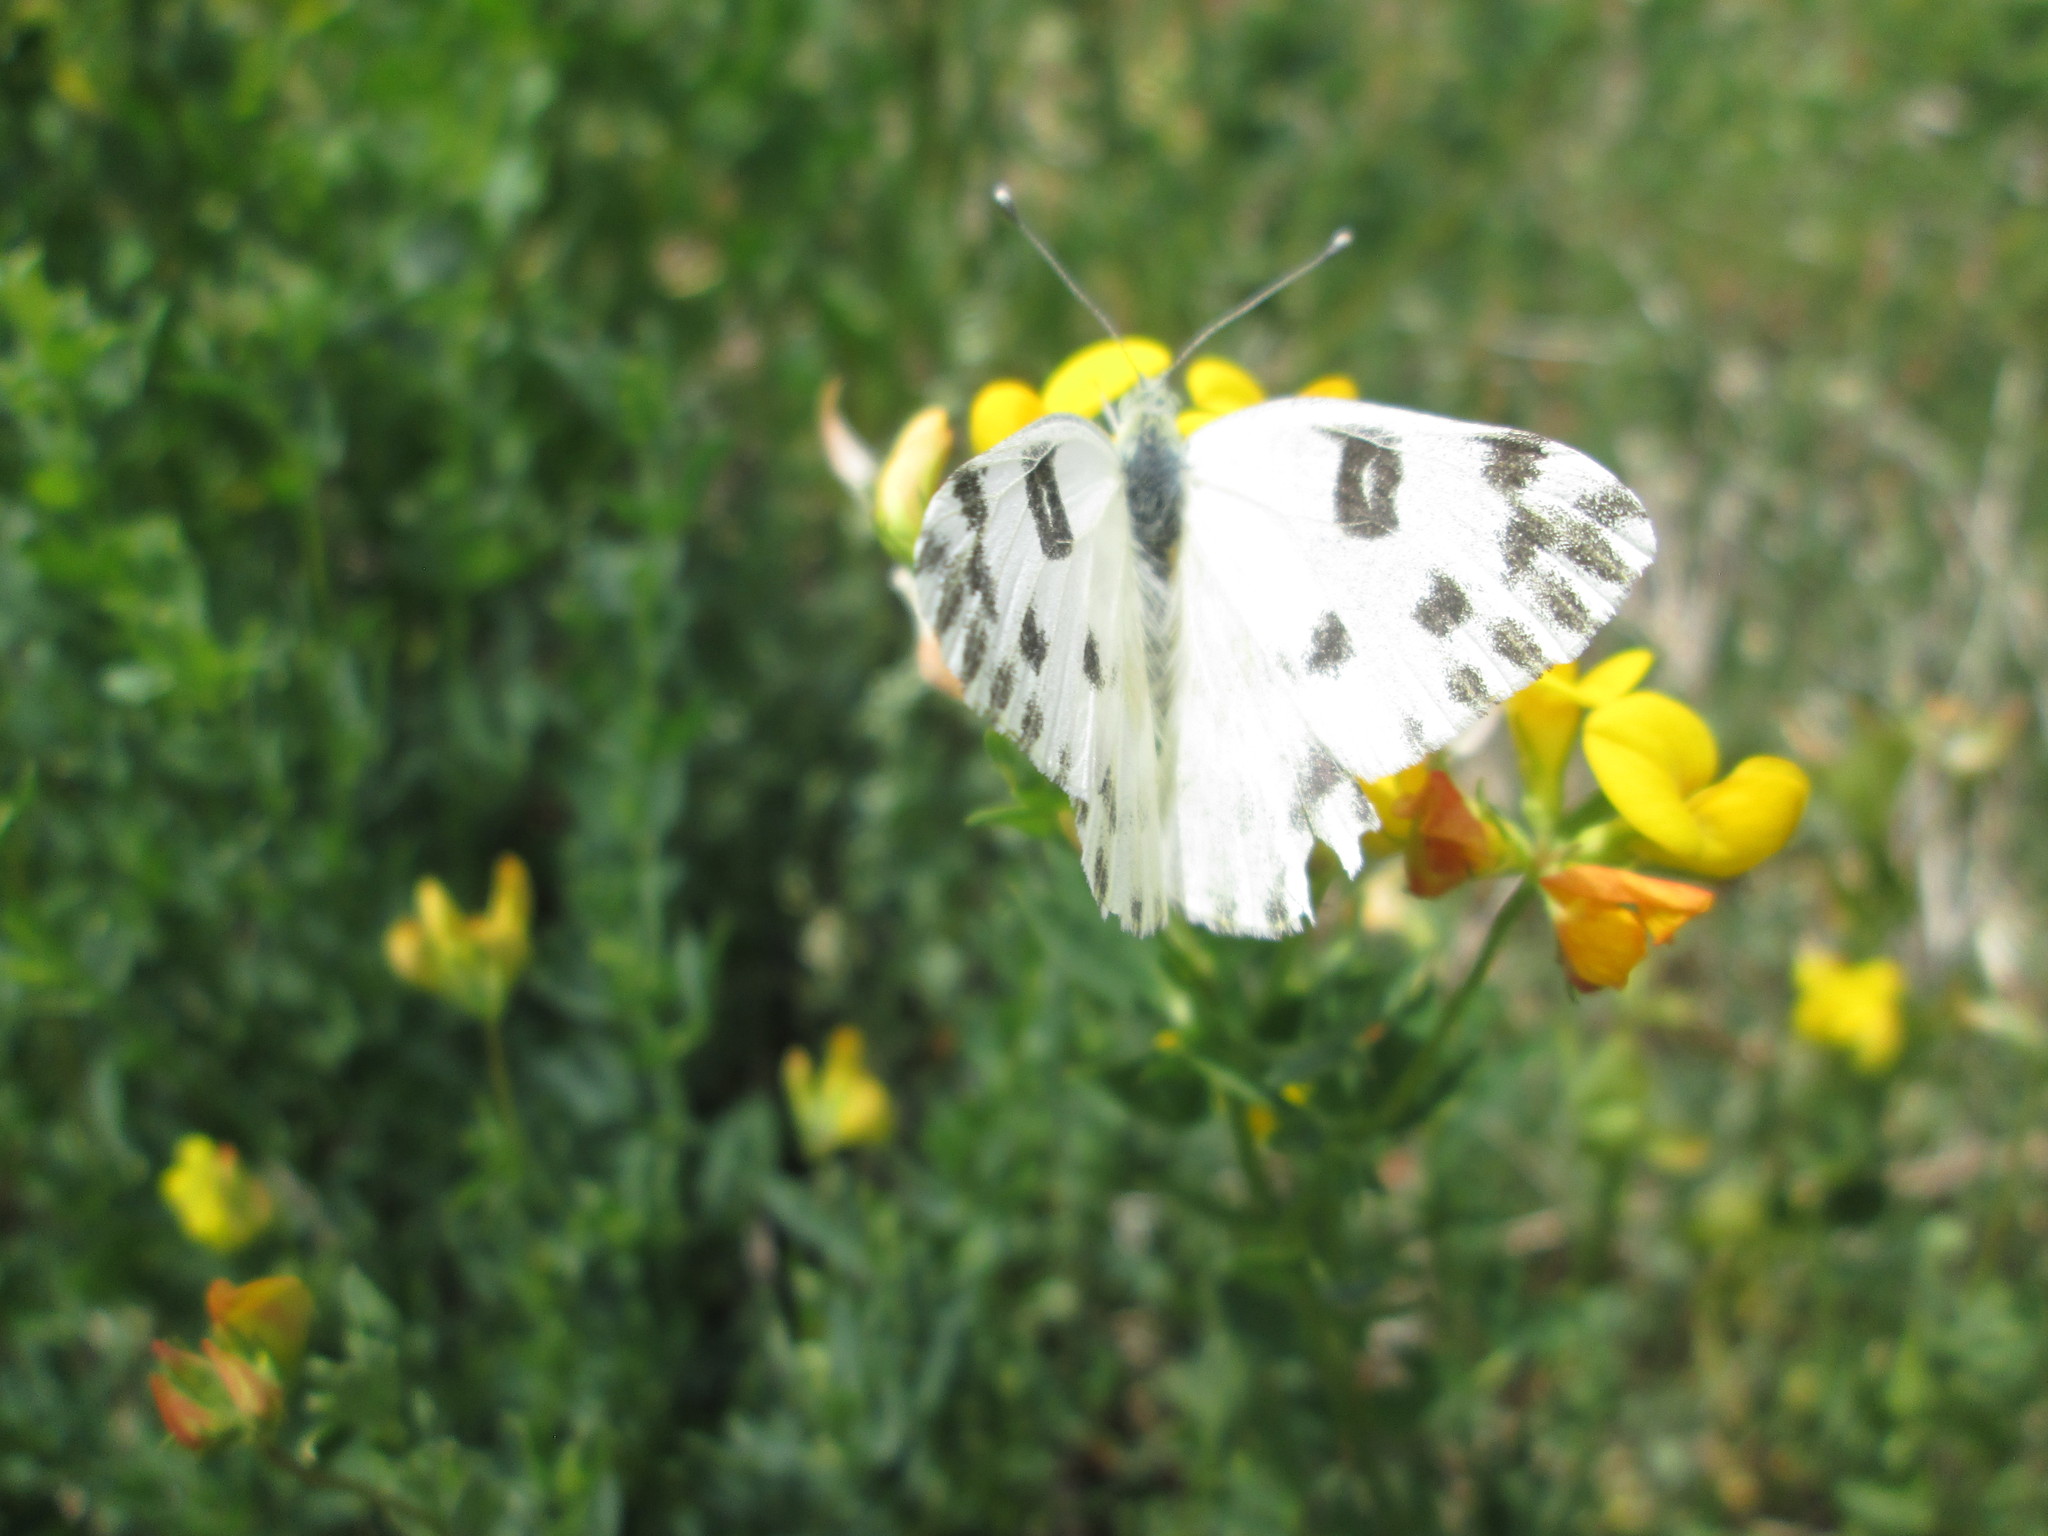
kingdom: Animalia
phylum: Arthropoda
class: Insecta
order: Lepidoptera
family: Pieridae
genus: Pontia
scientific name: Pontia beckerii
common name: Becker's white
